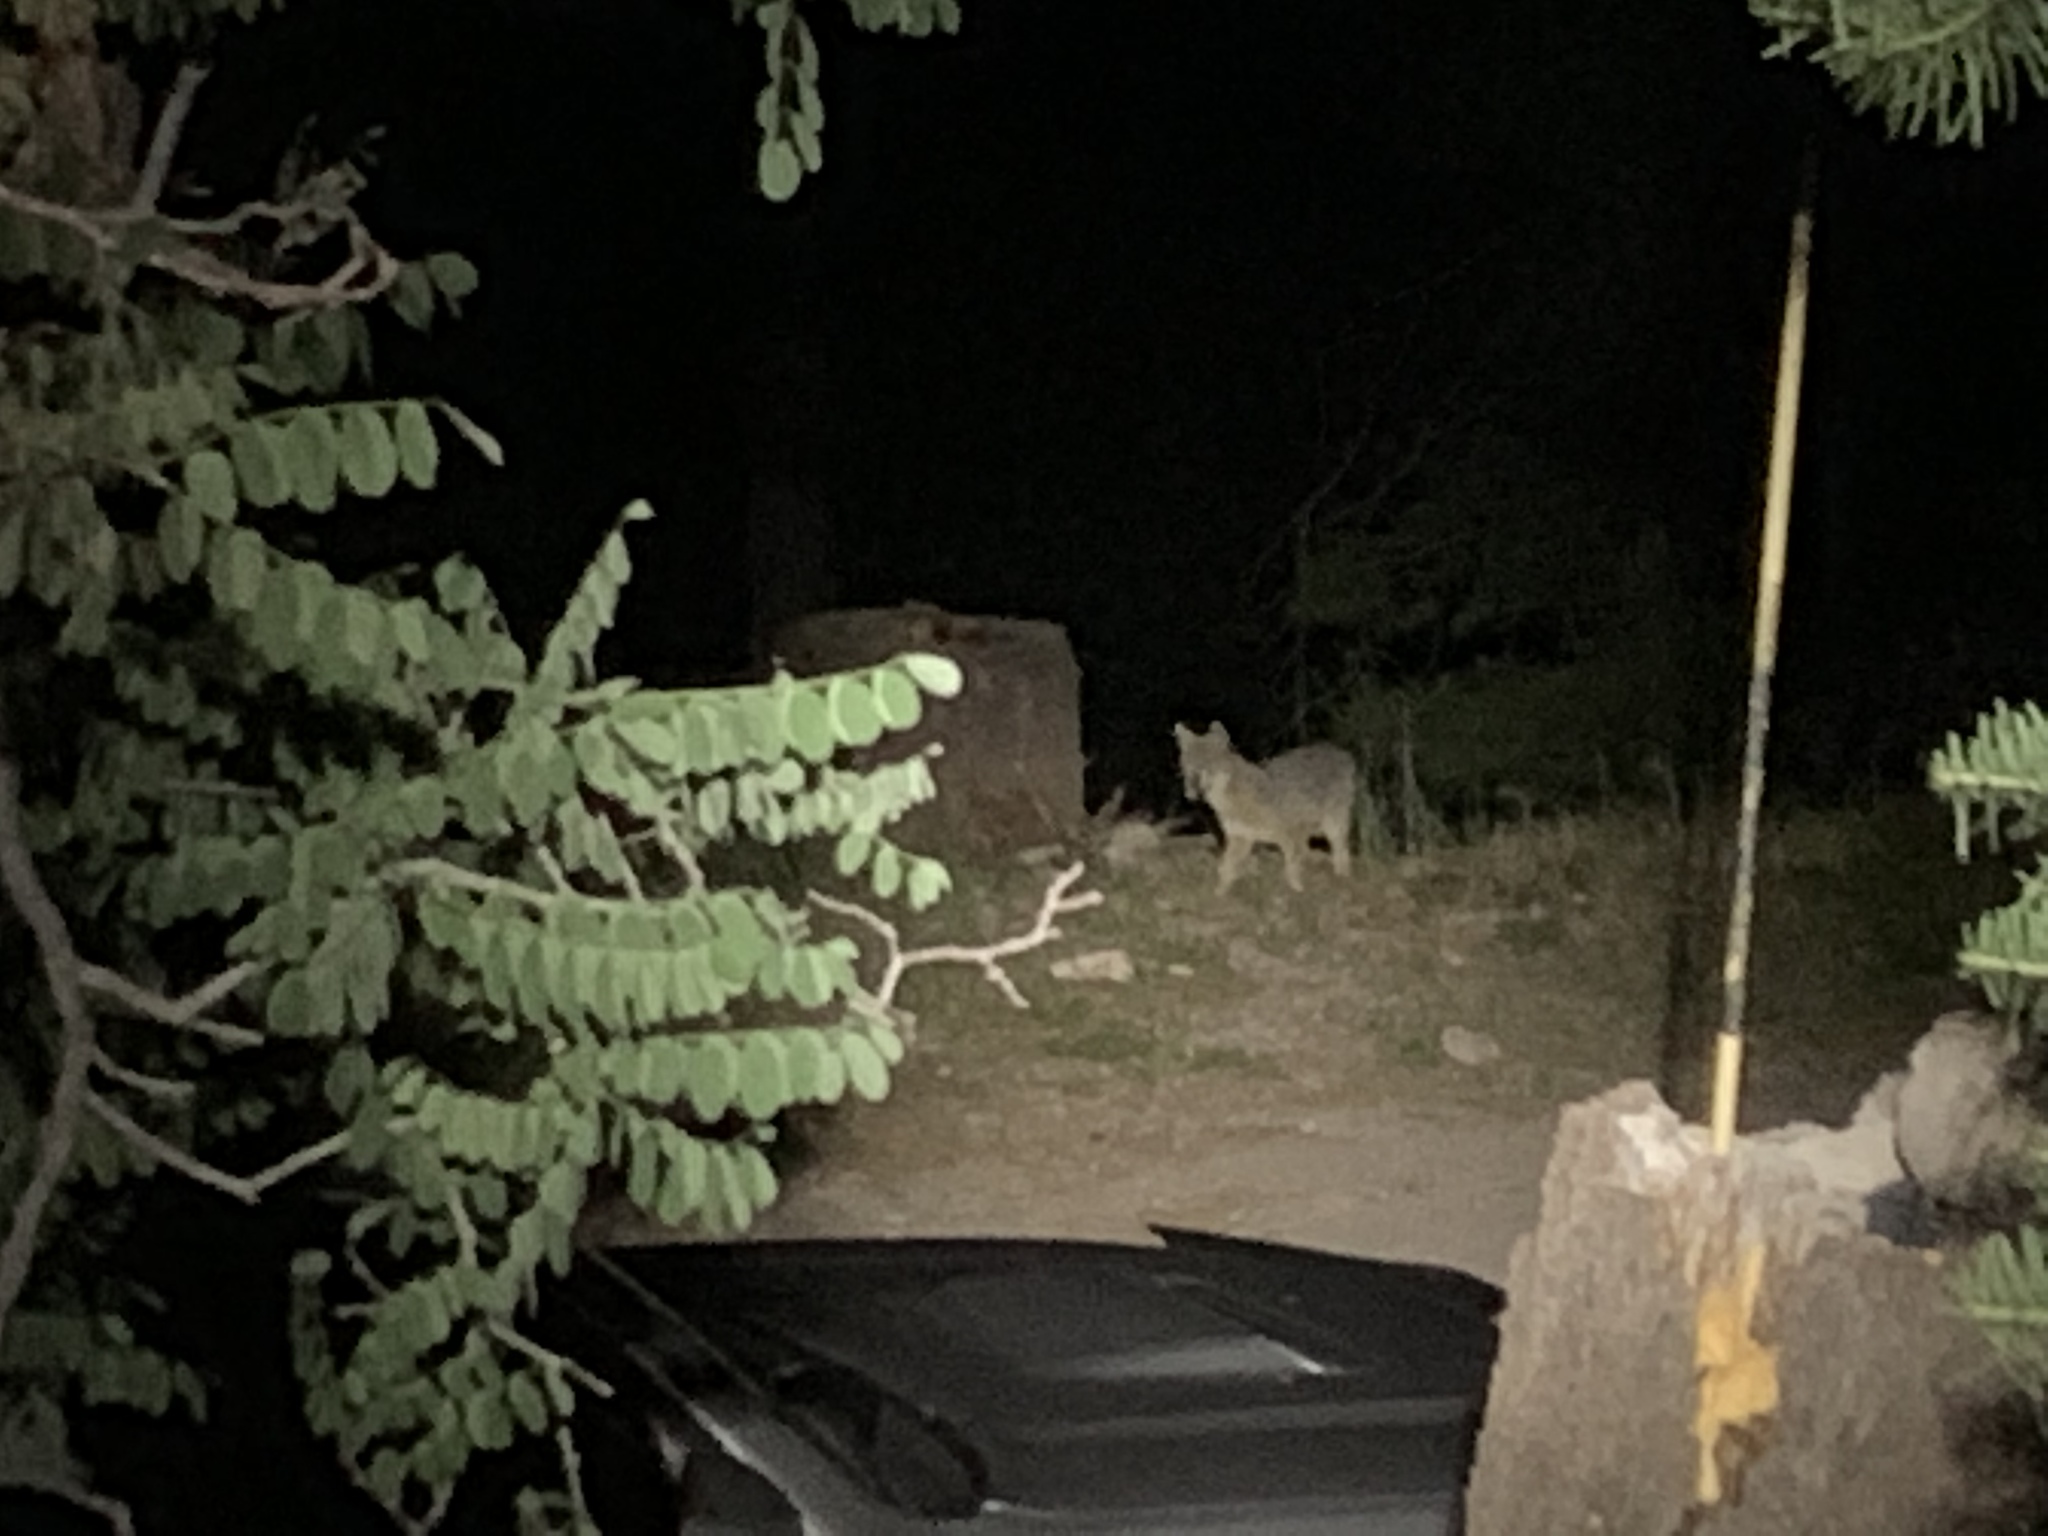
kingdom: Animalia
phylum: Chordata
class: Mammalia
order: Carnivora
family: Canidae
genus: Urocyon
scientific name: Urocyon cinereoargenteus
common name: Gray fox
